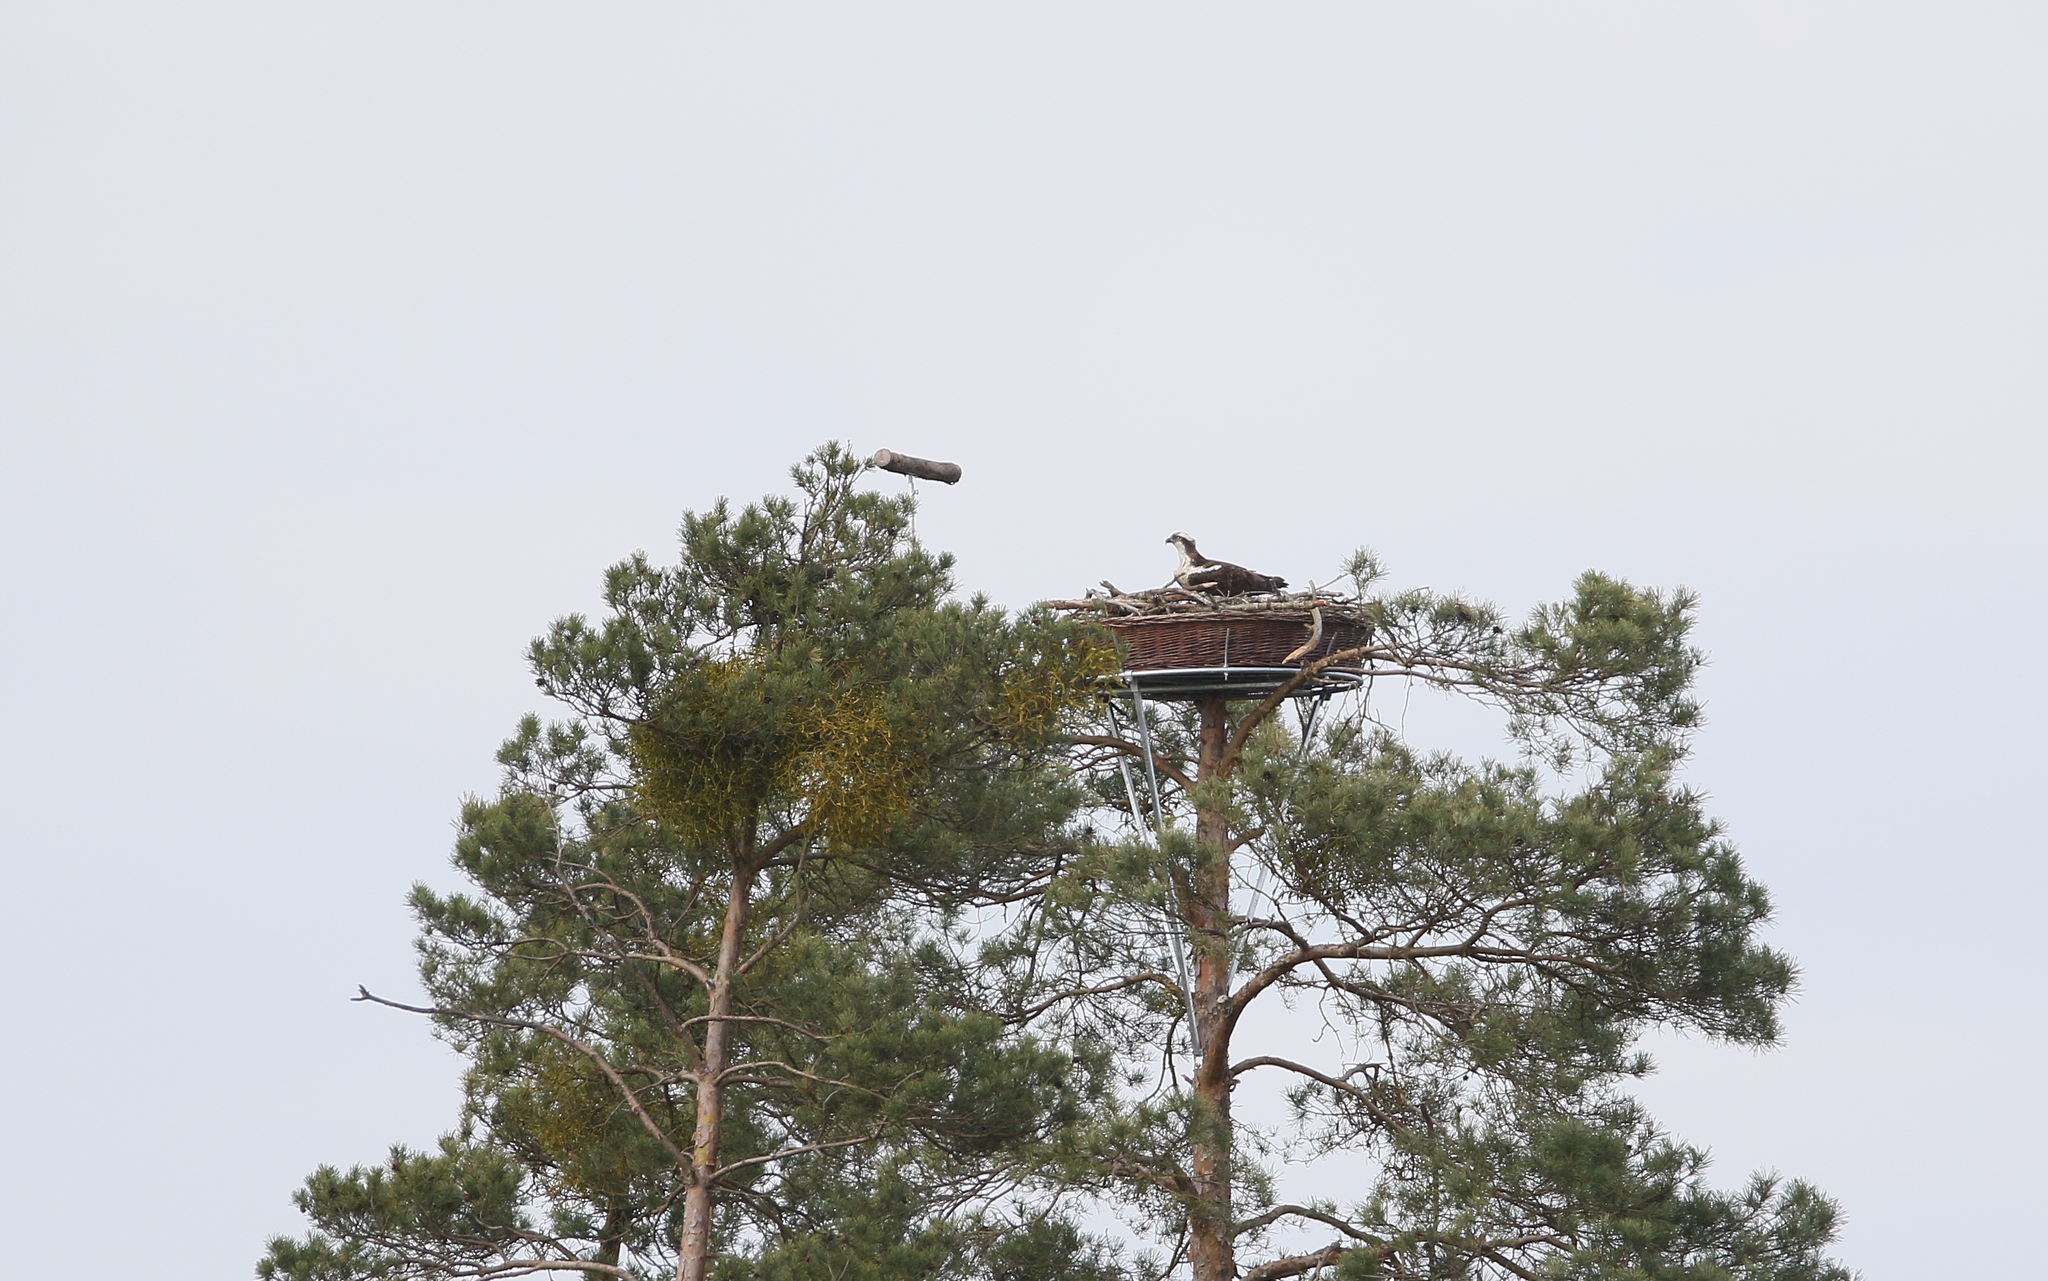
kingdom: Animalia
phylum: Chordata
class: Aves
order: Accipitriformes
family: Pandionidae
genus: Pandion
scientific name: Pandion haliaetus
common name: Osprey
